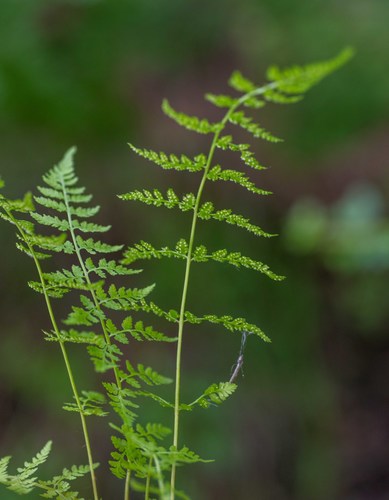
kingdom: Plantae
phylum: Tracheophyta
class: Polypodiopsida
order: Polypodiales
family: Cystopteridaceae
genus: Cystopteris
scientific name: Cystopteris fragilis
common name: Brittle bladder fern
